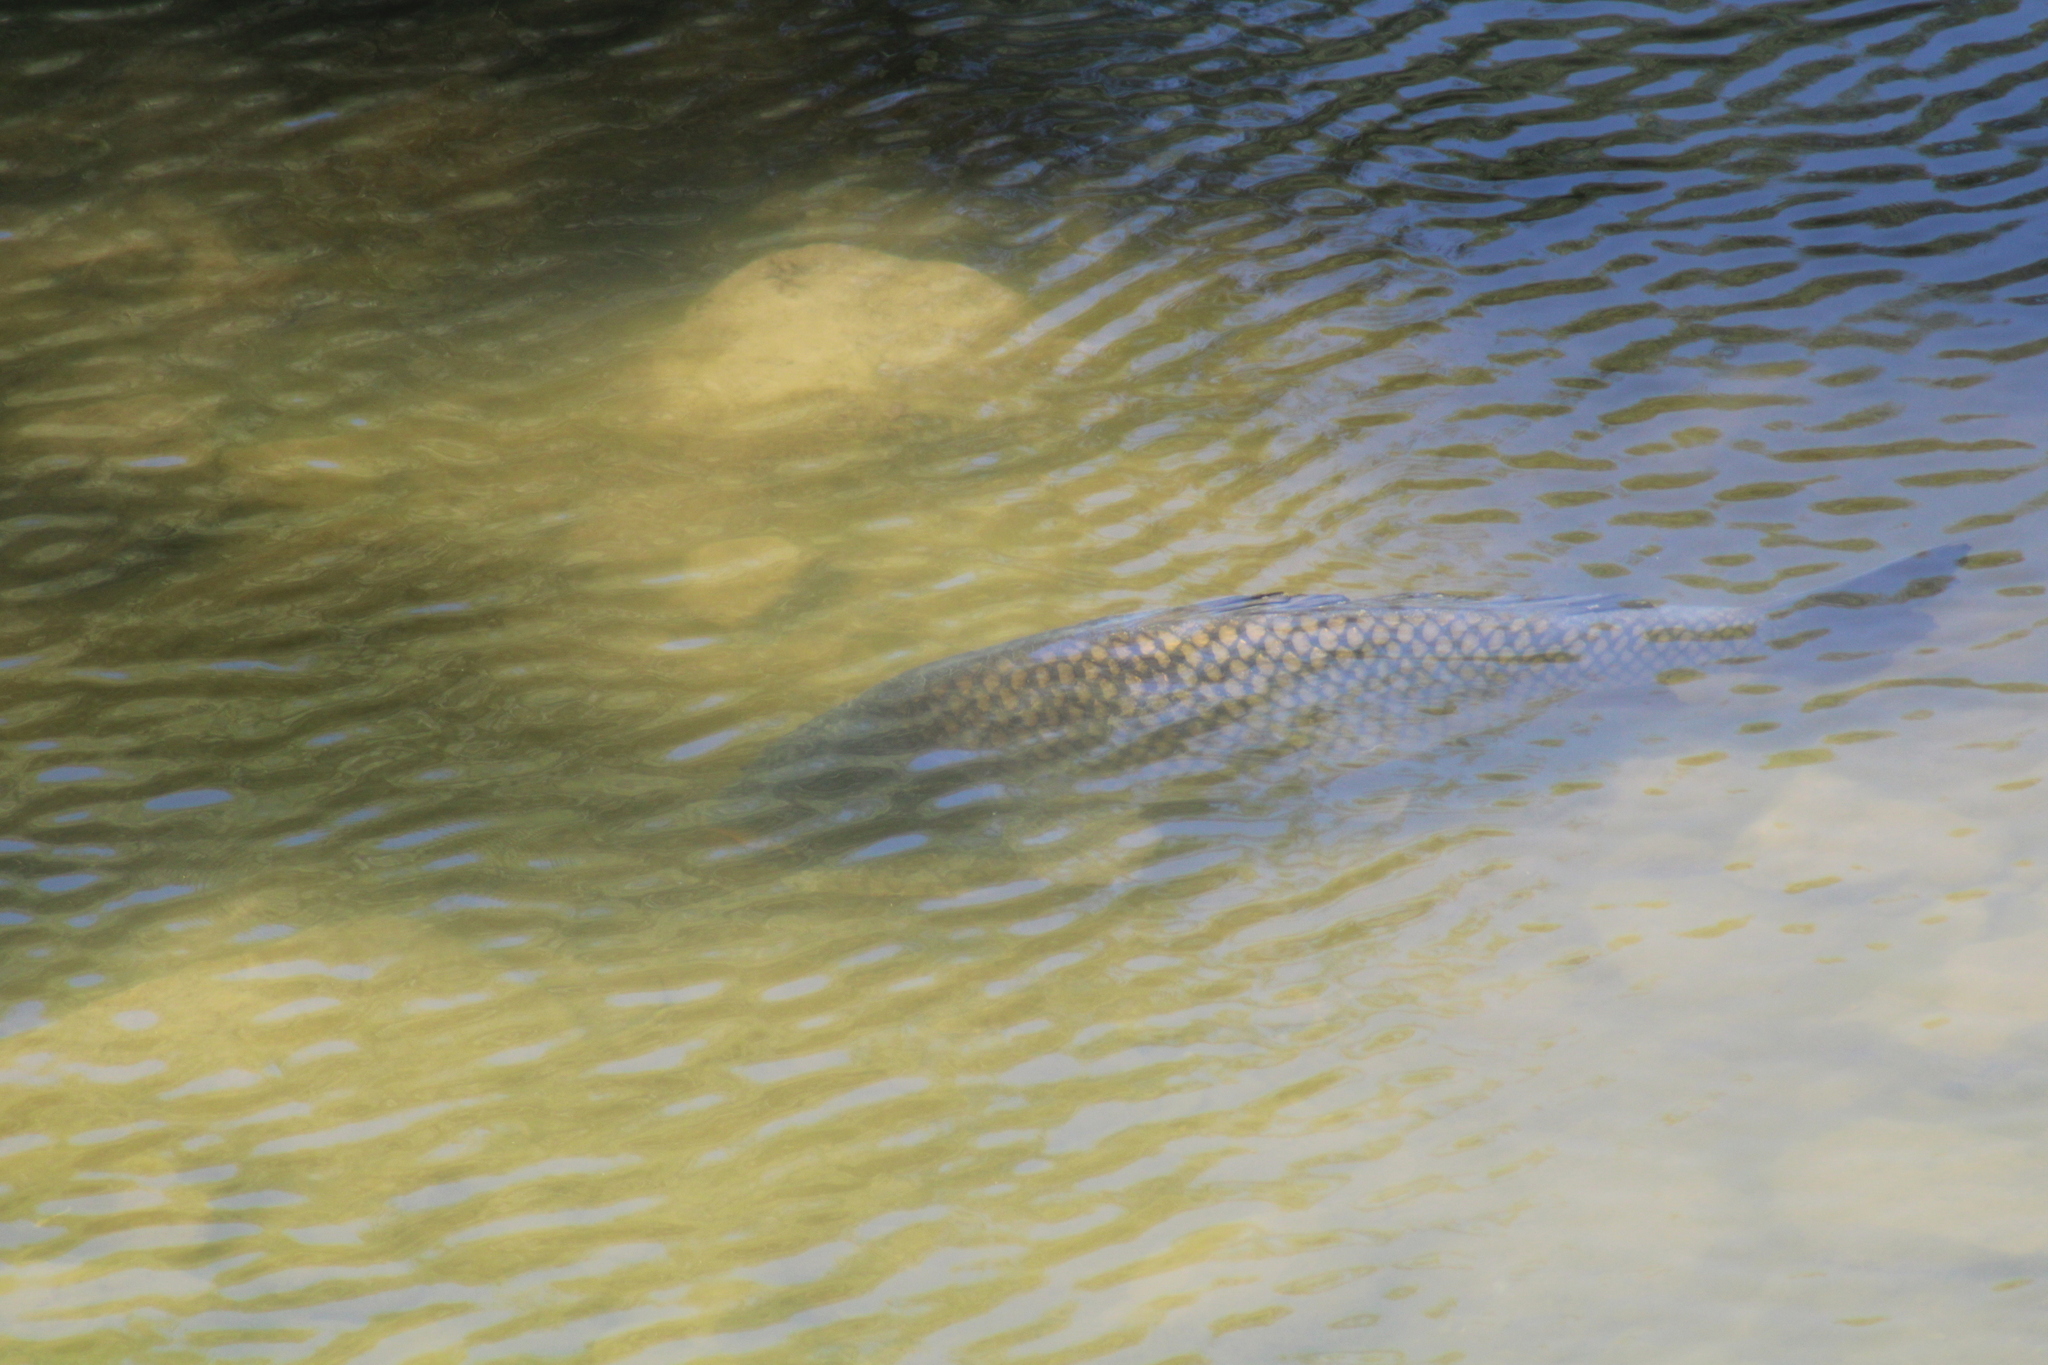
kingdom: Animalia
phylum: Chordata
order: Cypriniformes
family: Cyprinidae
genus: Cyprinus
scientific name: Cyprinus carpio
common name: Common carp
